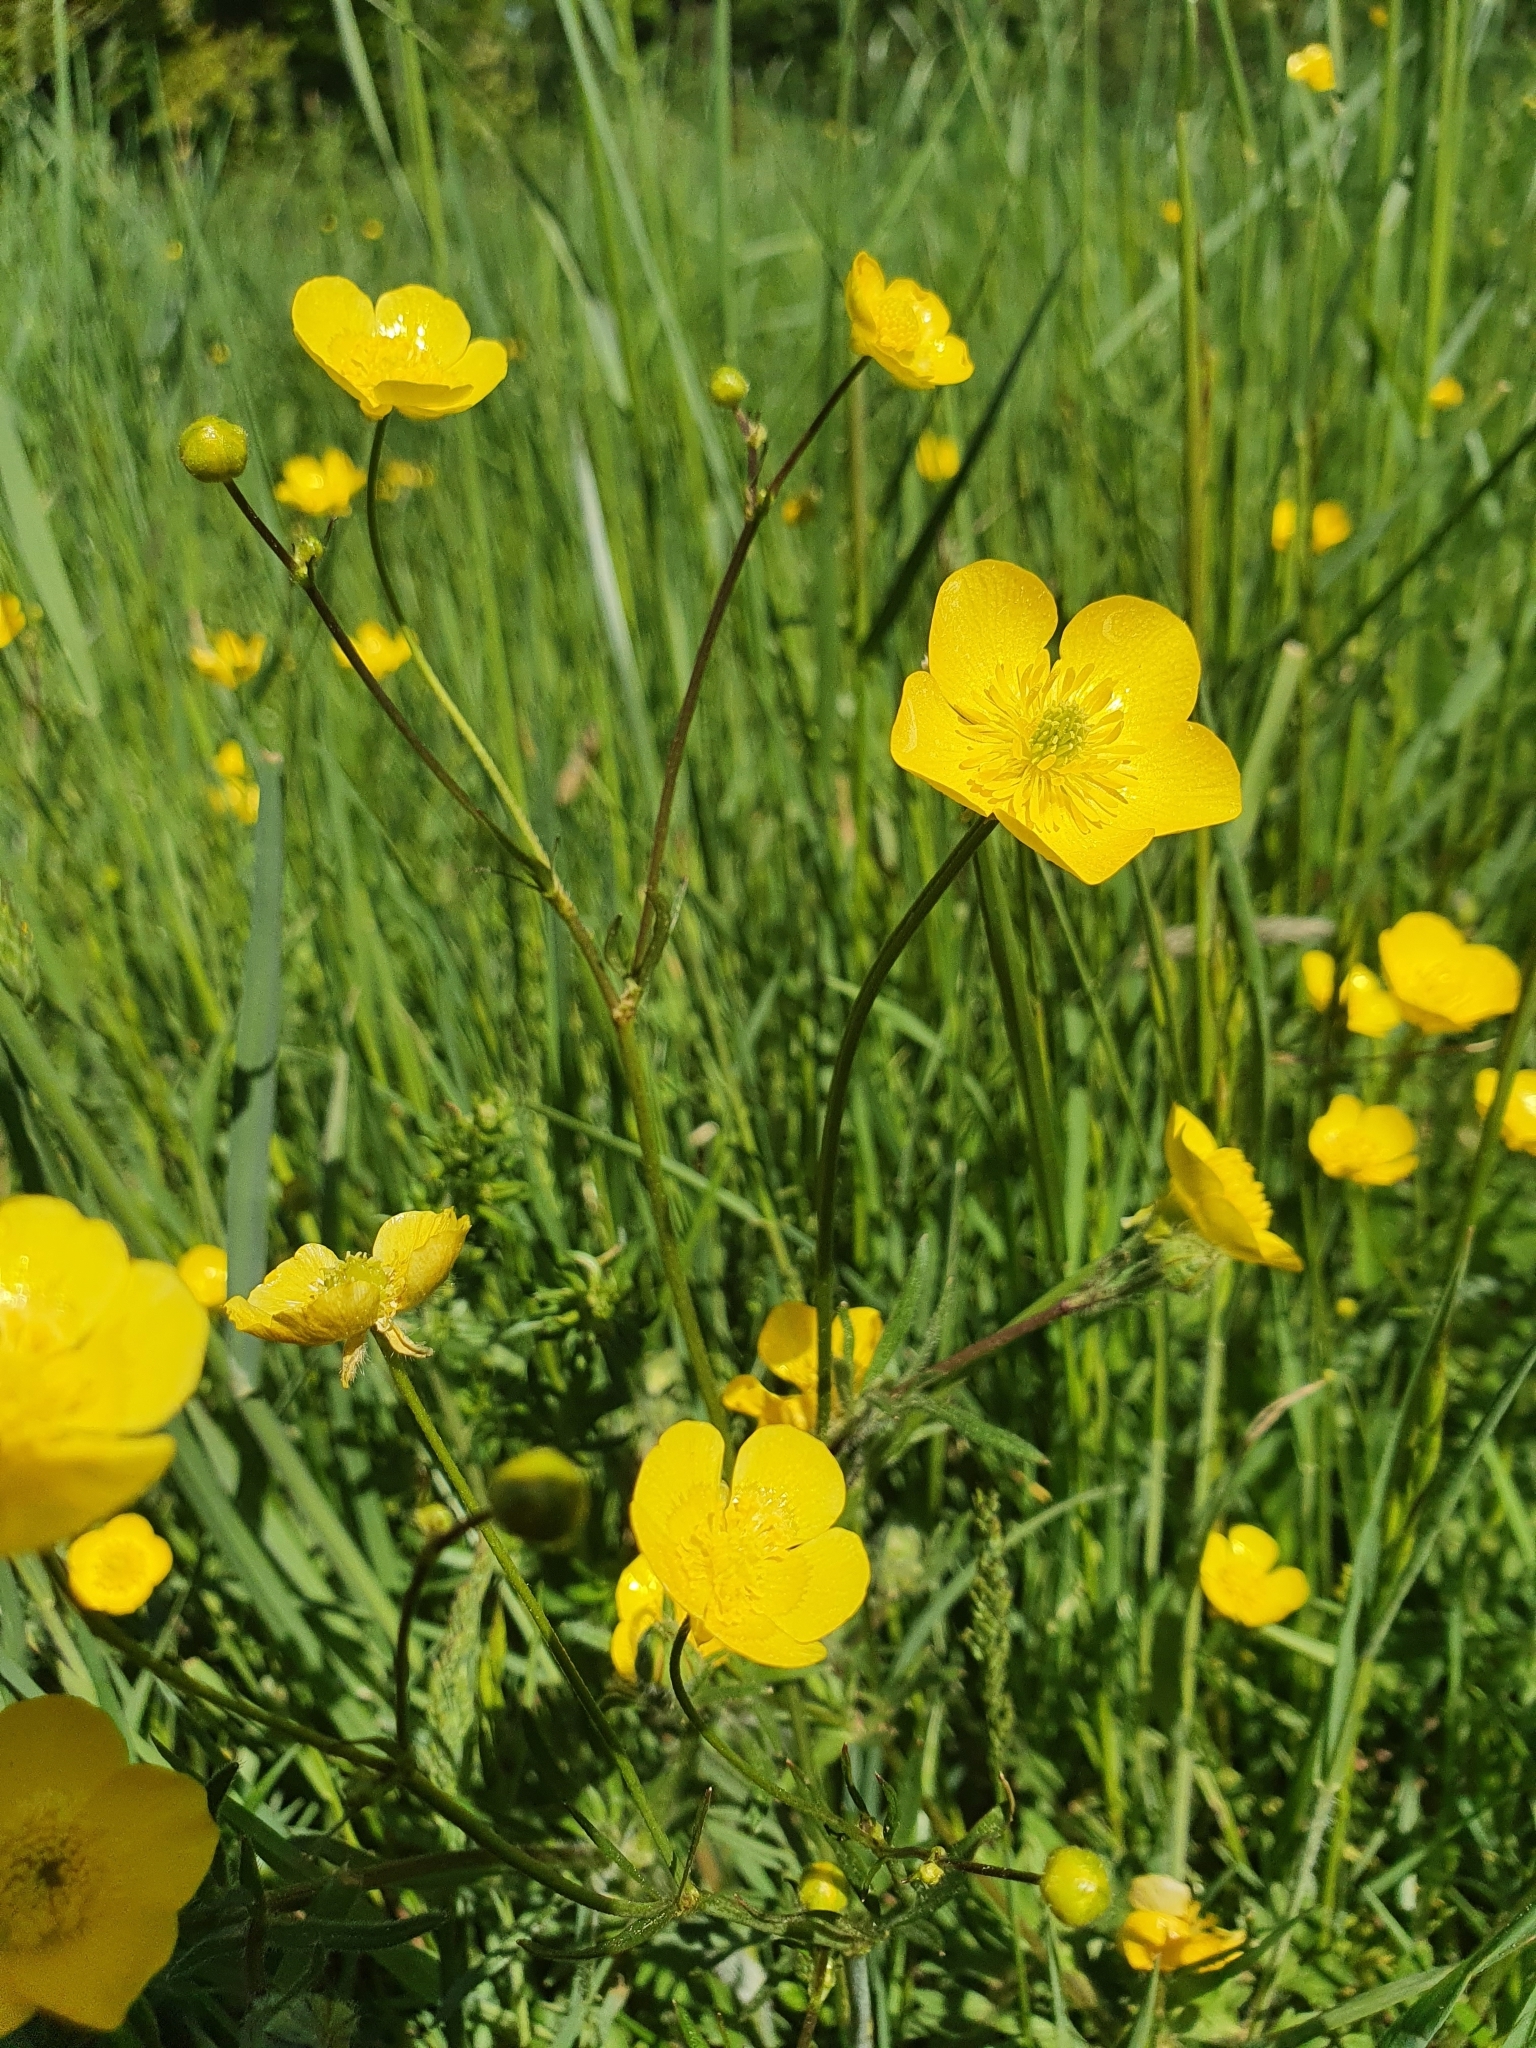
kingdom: Plantae
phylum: Tracheophyta
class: Magnoliopsida
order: Ranunculales
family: Ranunculaceae
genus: Ranunculus
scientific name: Ranunculus bulbosus
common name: Bulbous buttercup
